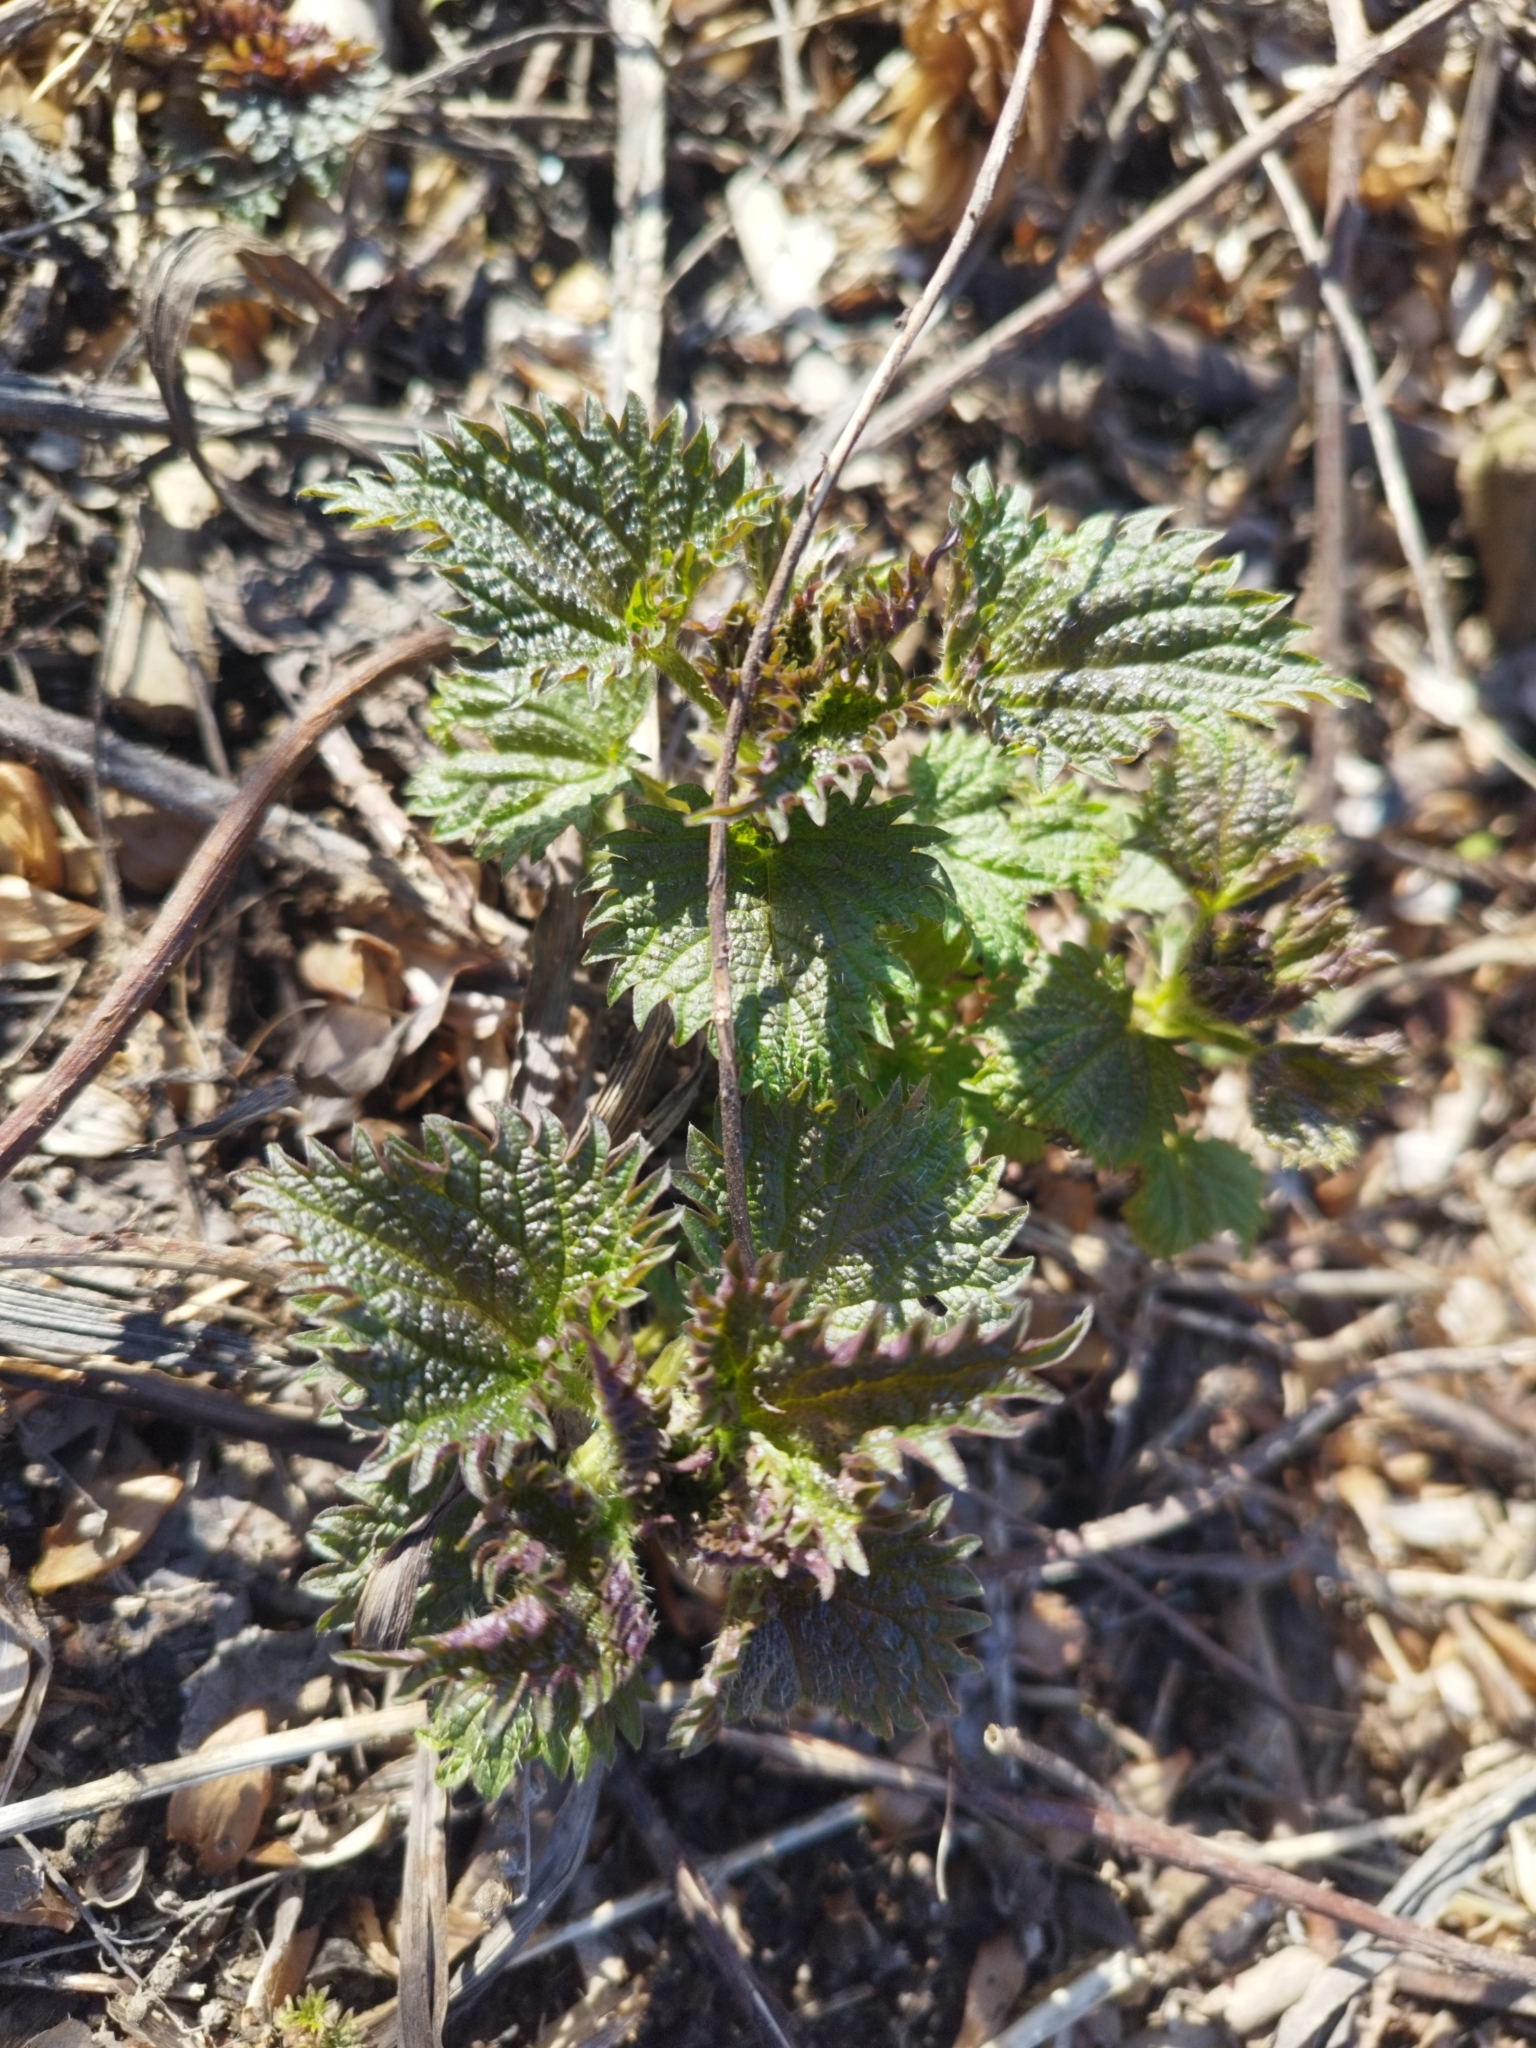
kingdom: Plantae
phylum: Tracheophyta
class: Magnoliopsida
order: Rosales
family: Urticaceae
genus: Urtica
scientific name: Urtica dioica
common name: Common nettle
